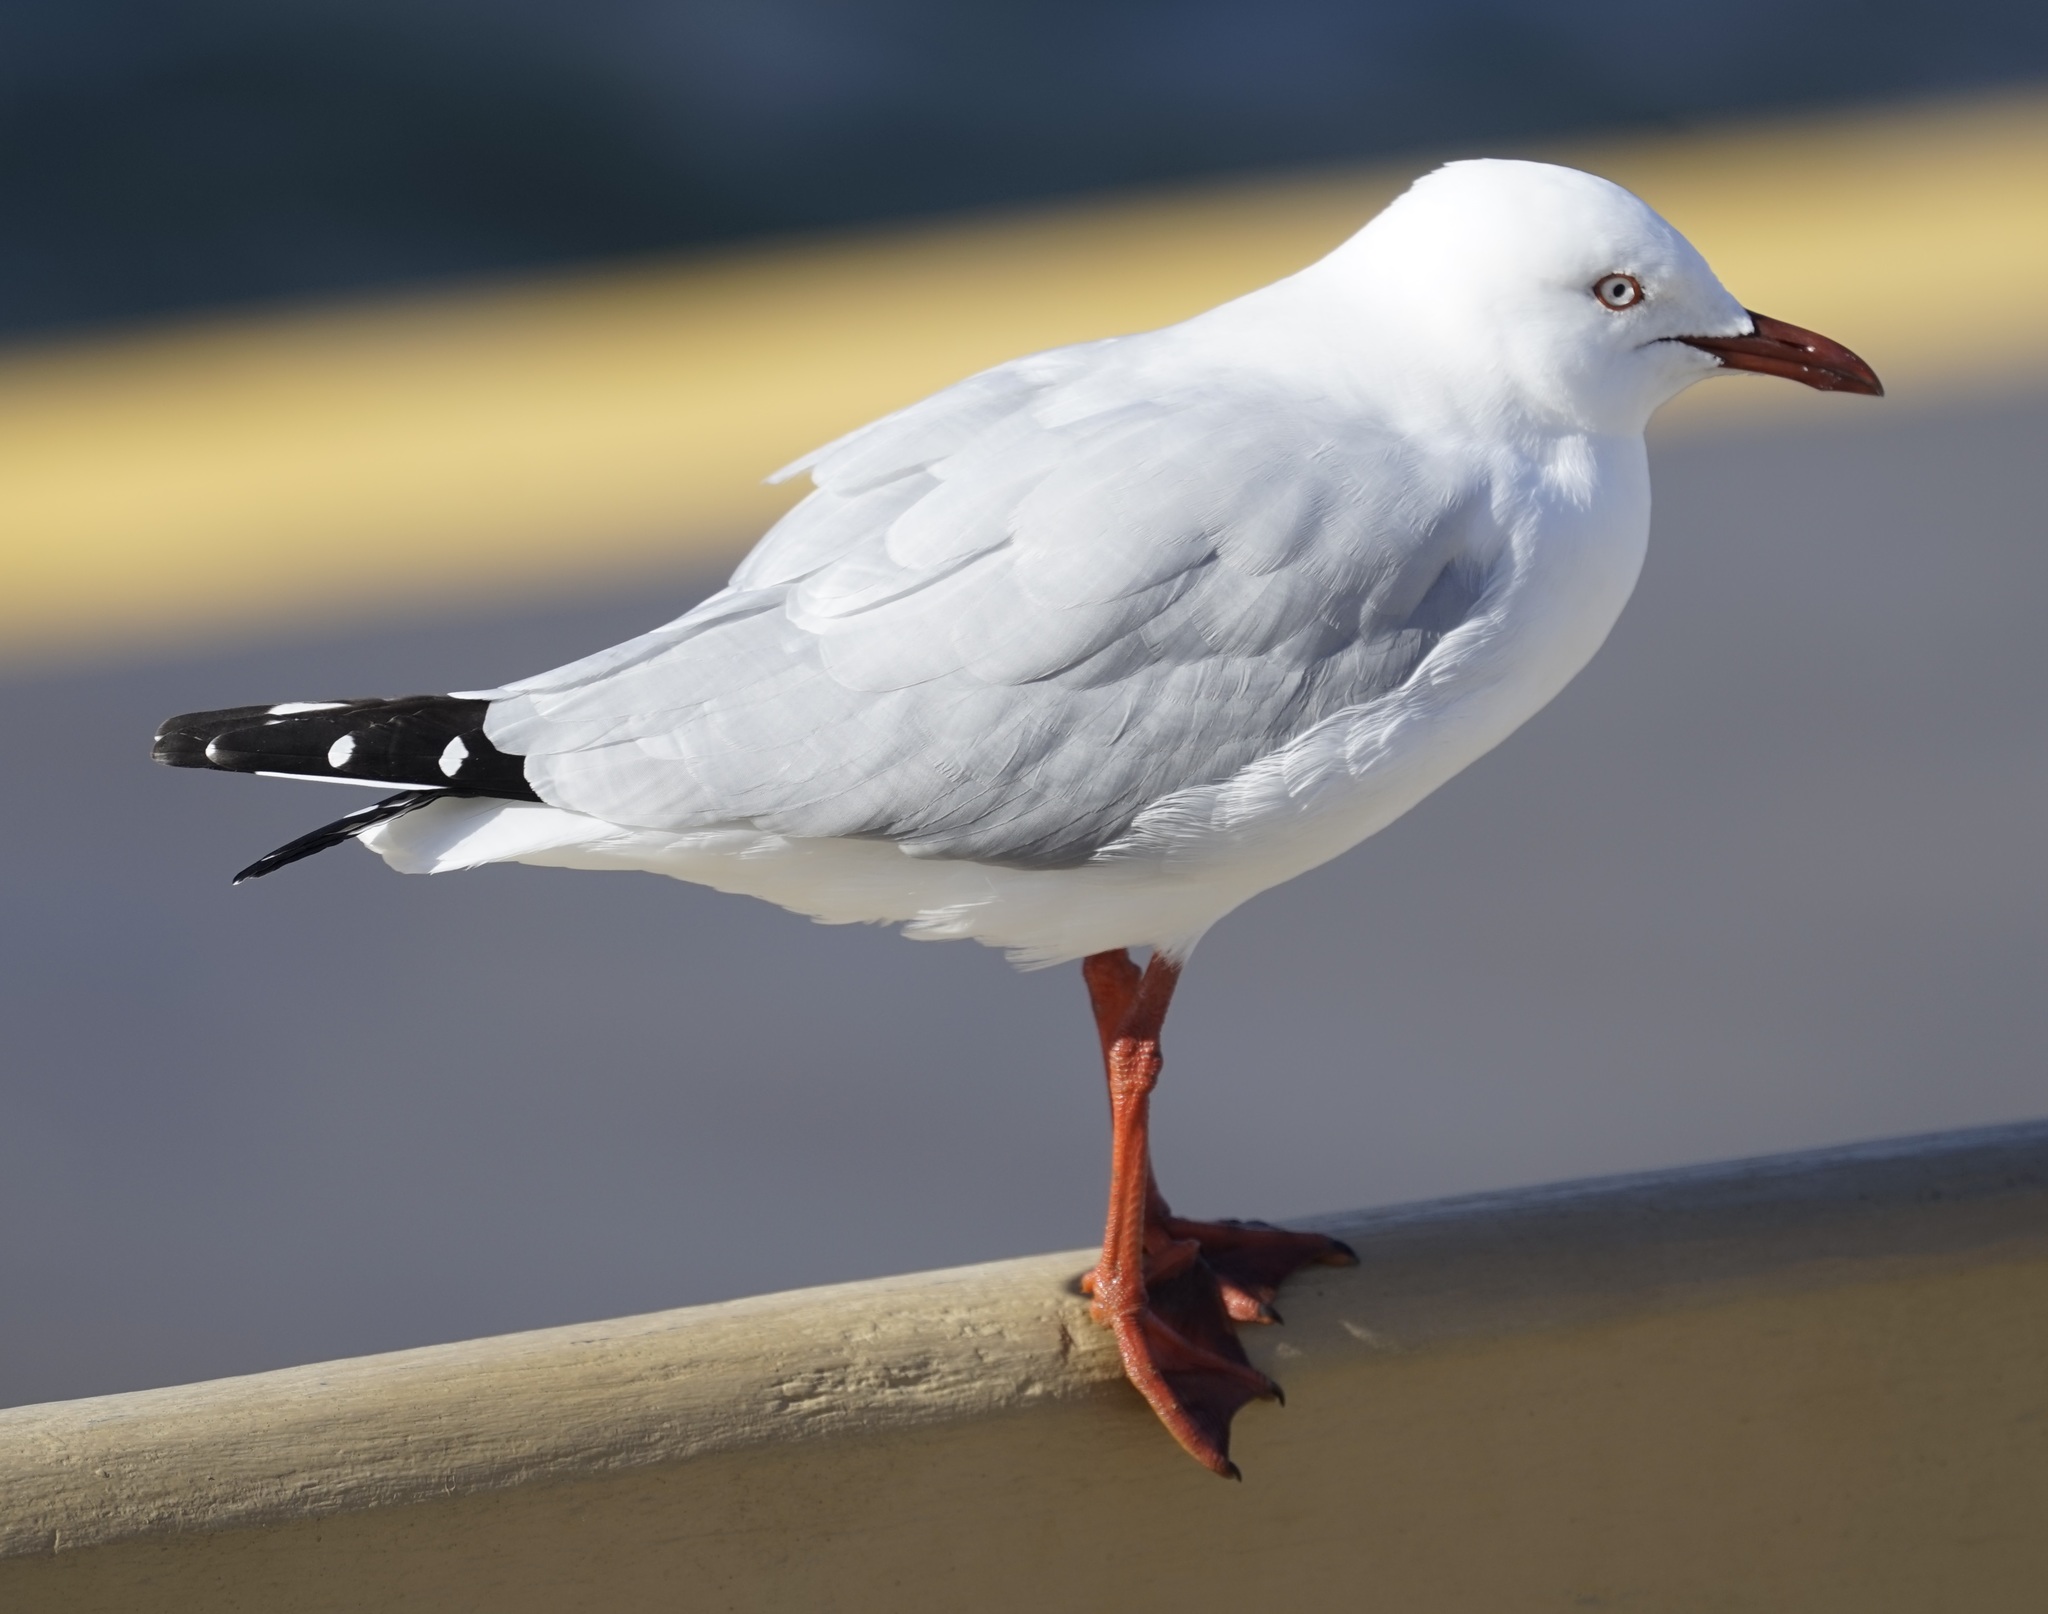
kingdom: Animalia
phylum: Chordata
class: Aves
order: Charadriiformes
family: Laridae
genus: Chroicocephalus
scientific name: Chroicocephalus novaehollandiae
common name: Silver gull
